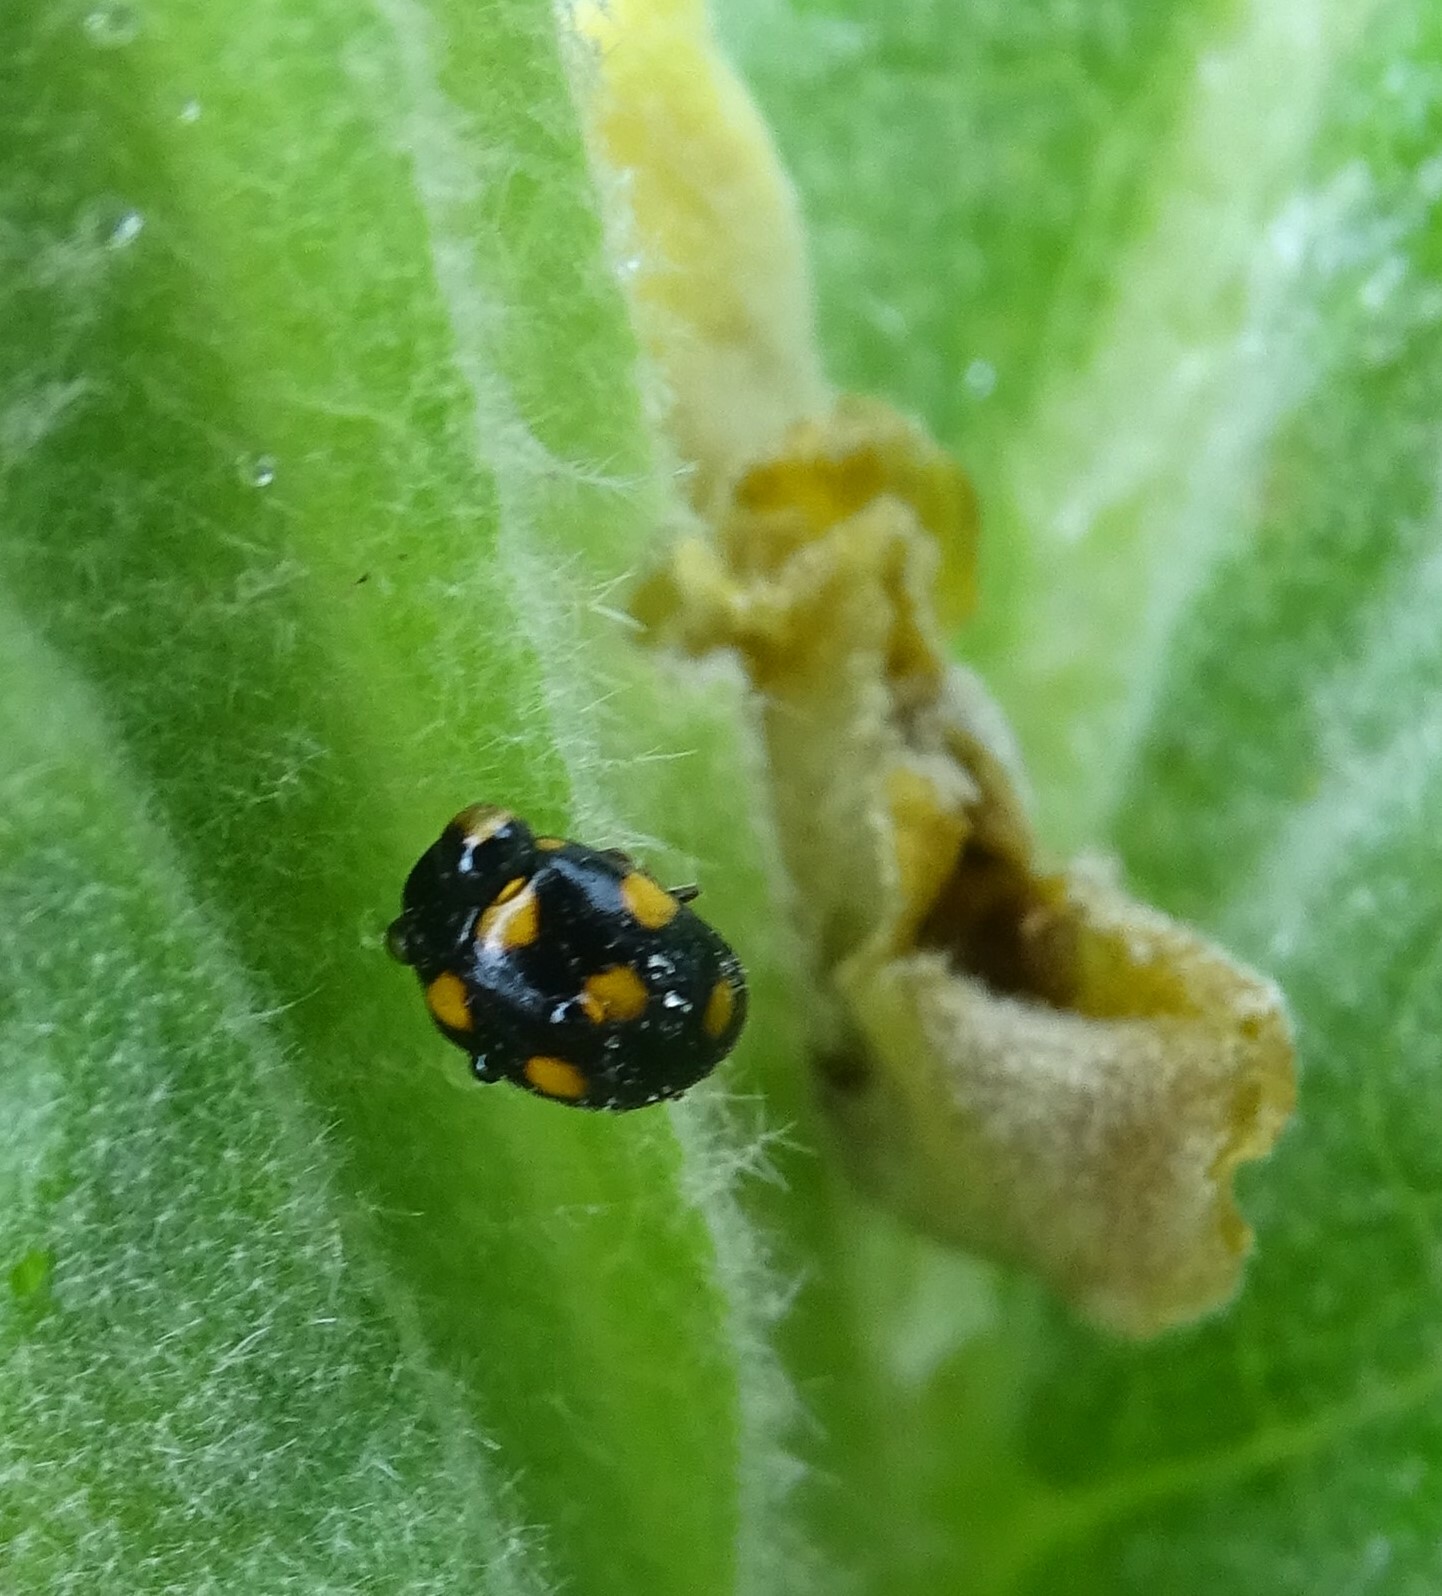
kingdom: Animalia
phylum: Arthropoda
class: Insecta
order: Coleoptera
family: Coccinellidae
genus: Brachiacantha
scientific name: Brachiacantha ursina
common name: Ursine spurleg lady beetle
